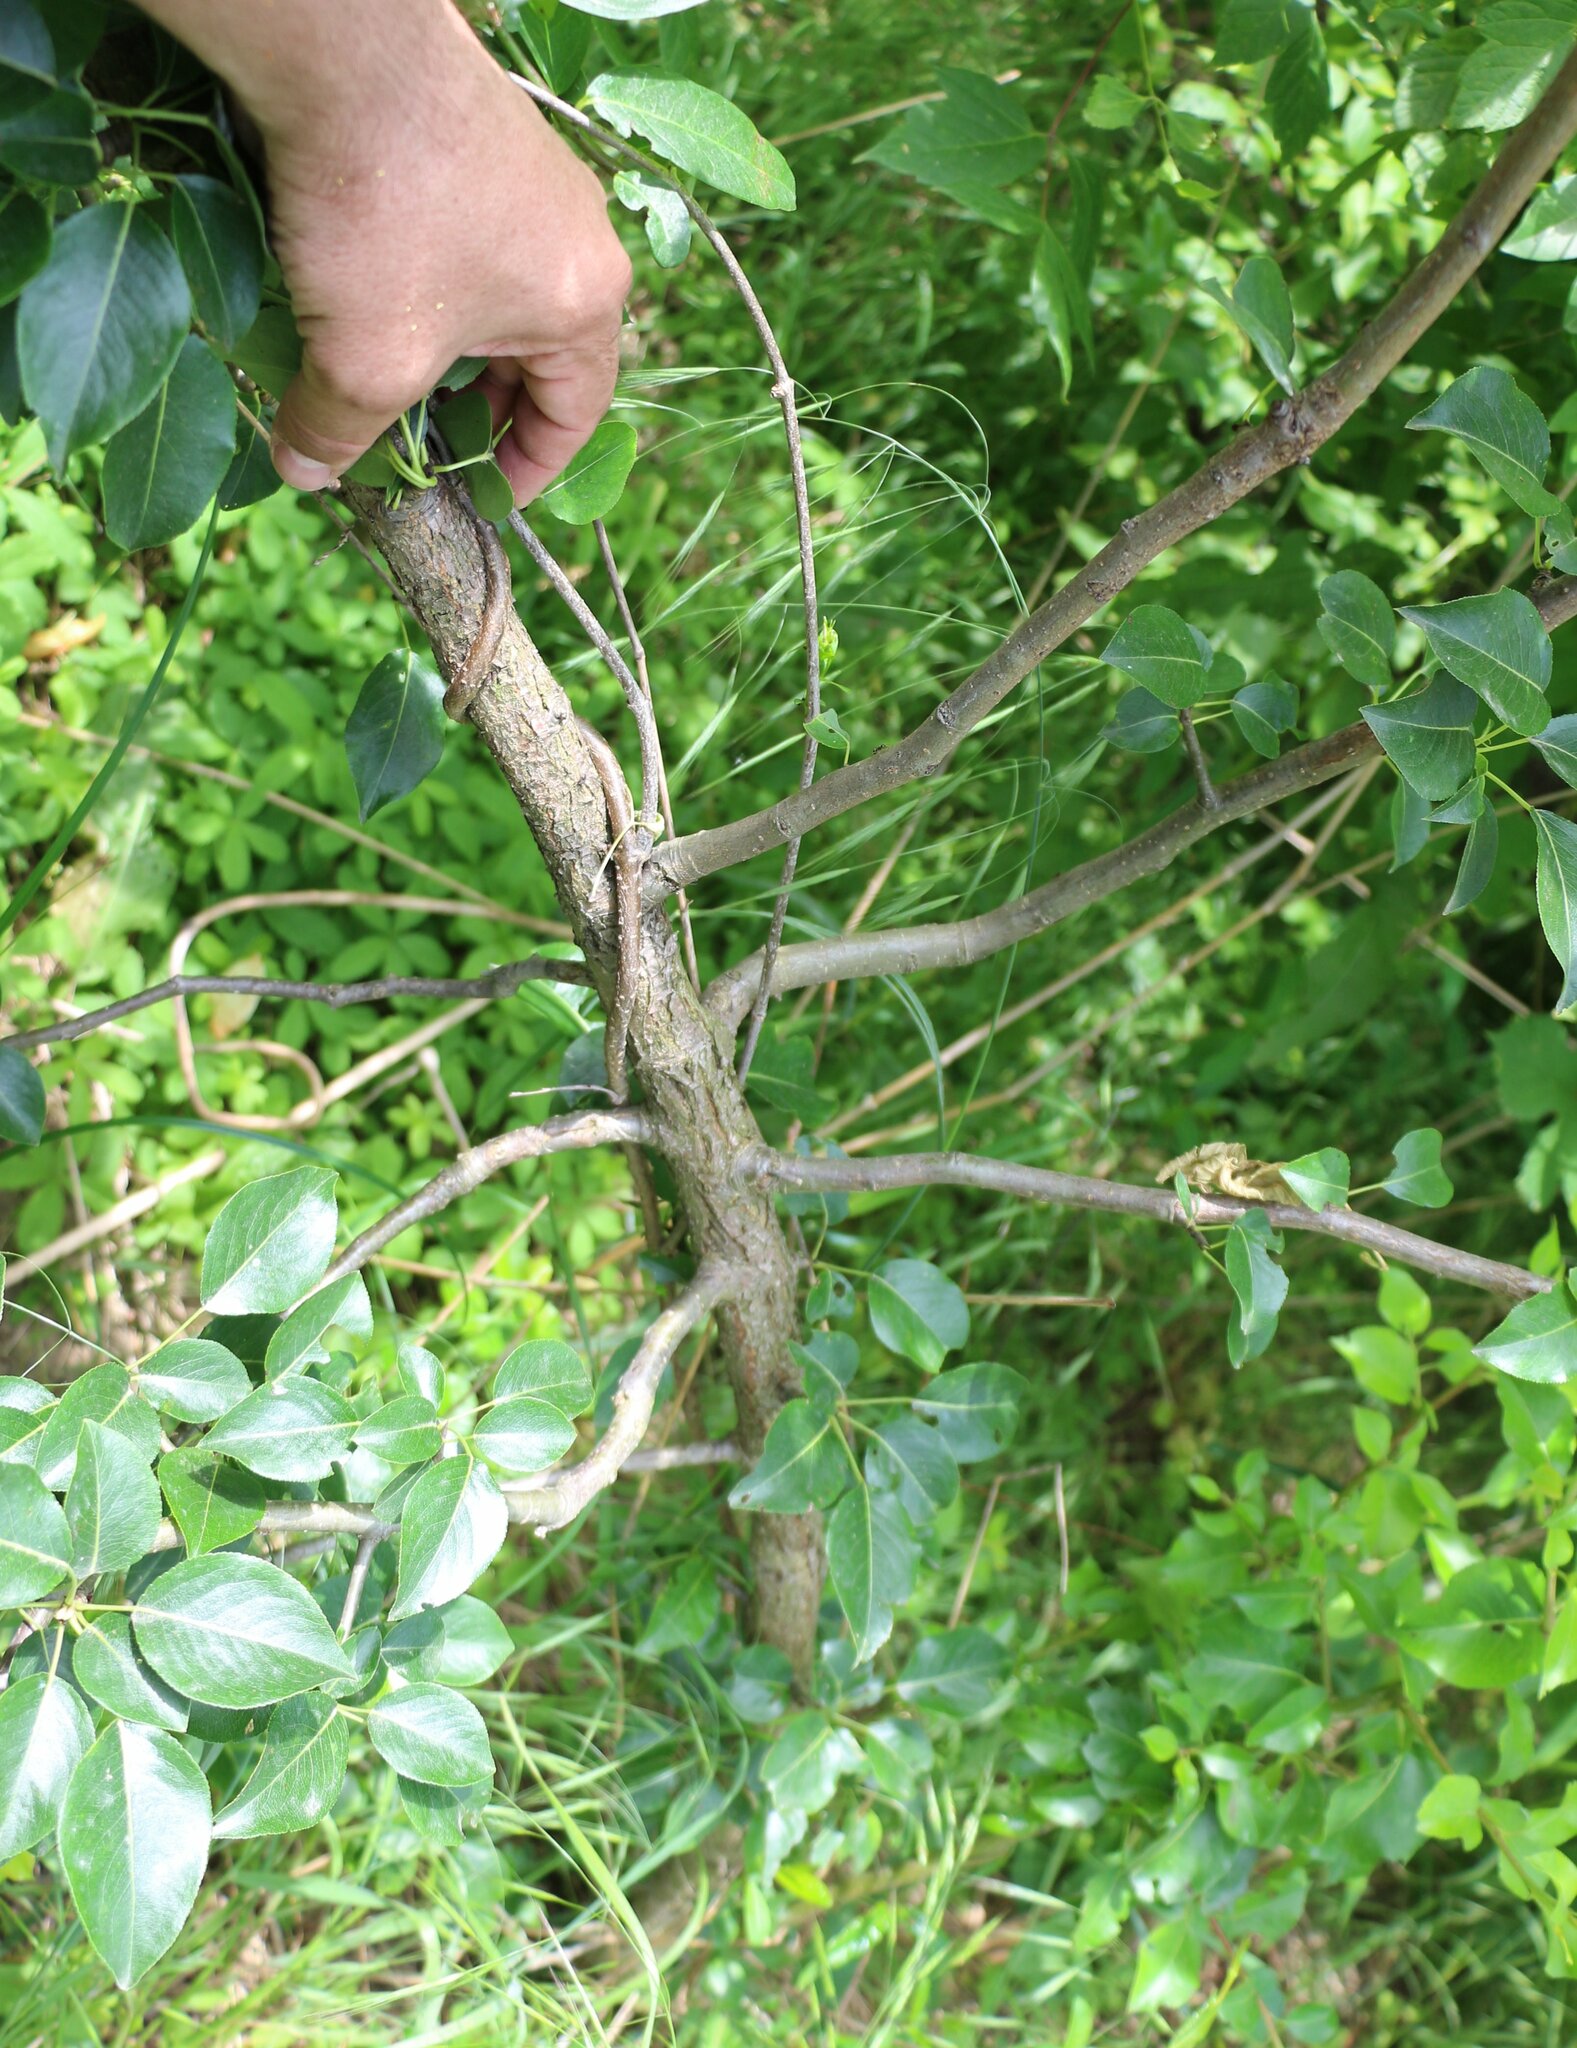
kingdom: Plantae
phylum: Tracheophyta
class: Magnoliopsida
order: Gentianales
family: Apocynaceae
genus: Periploca
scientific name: Periploca graeca
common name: Silkvine
